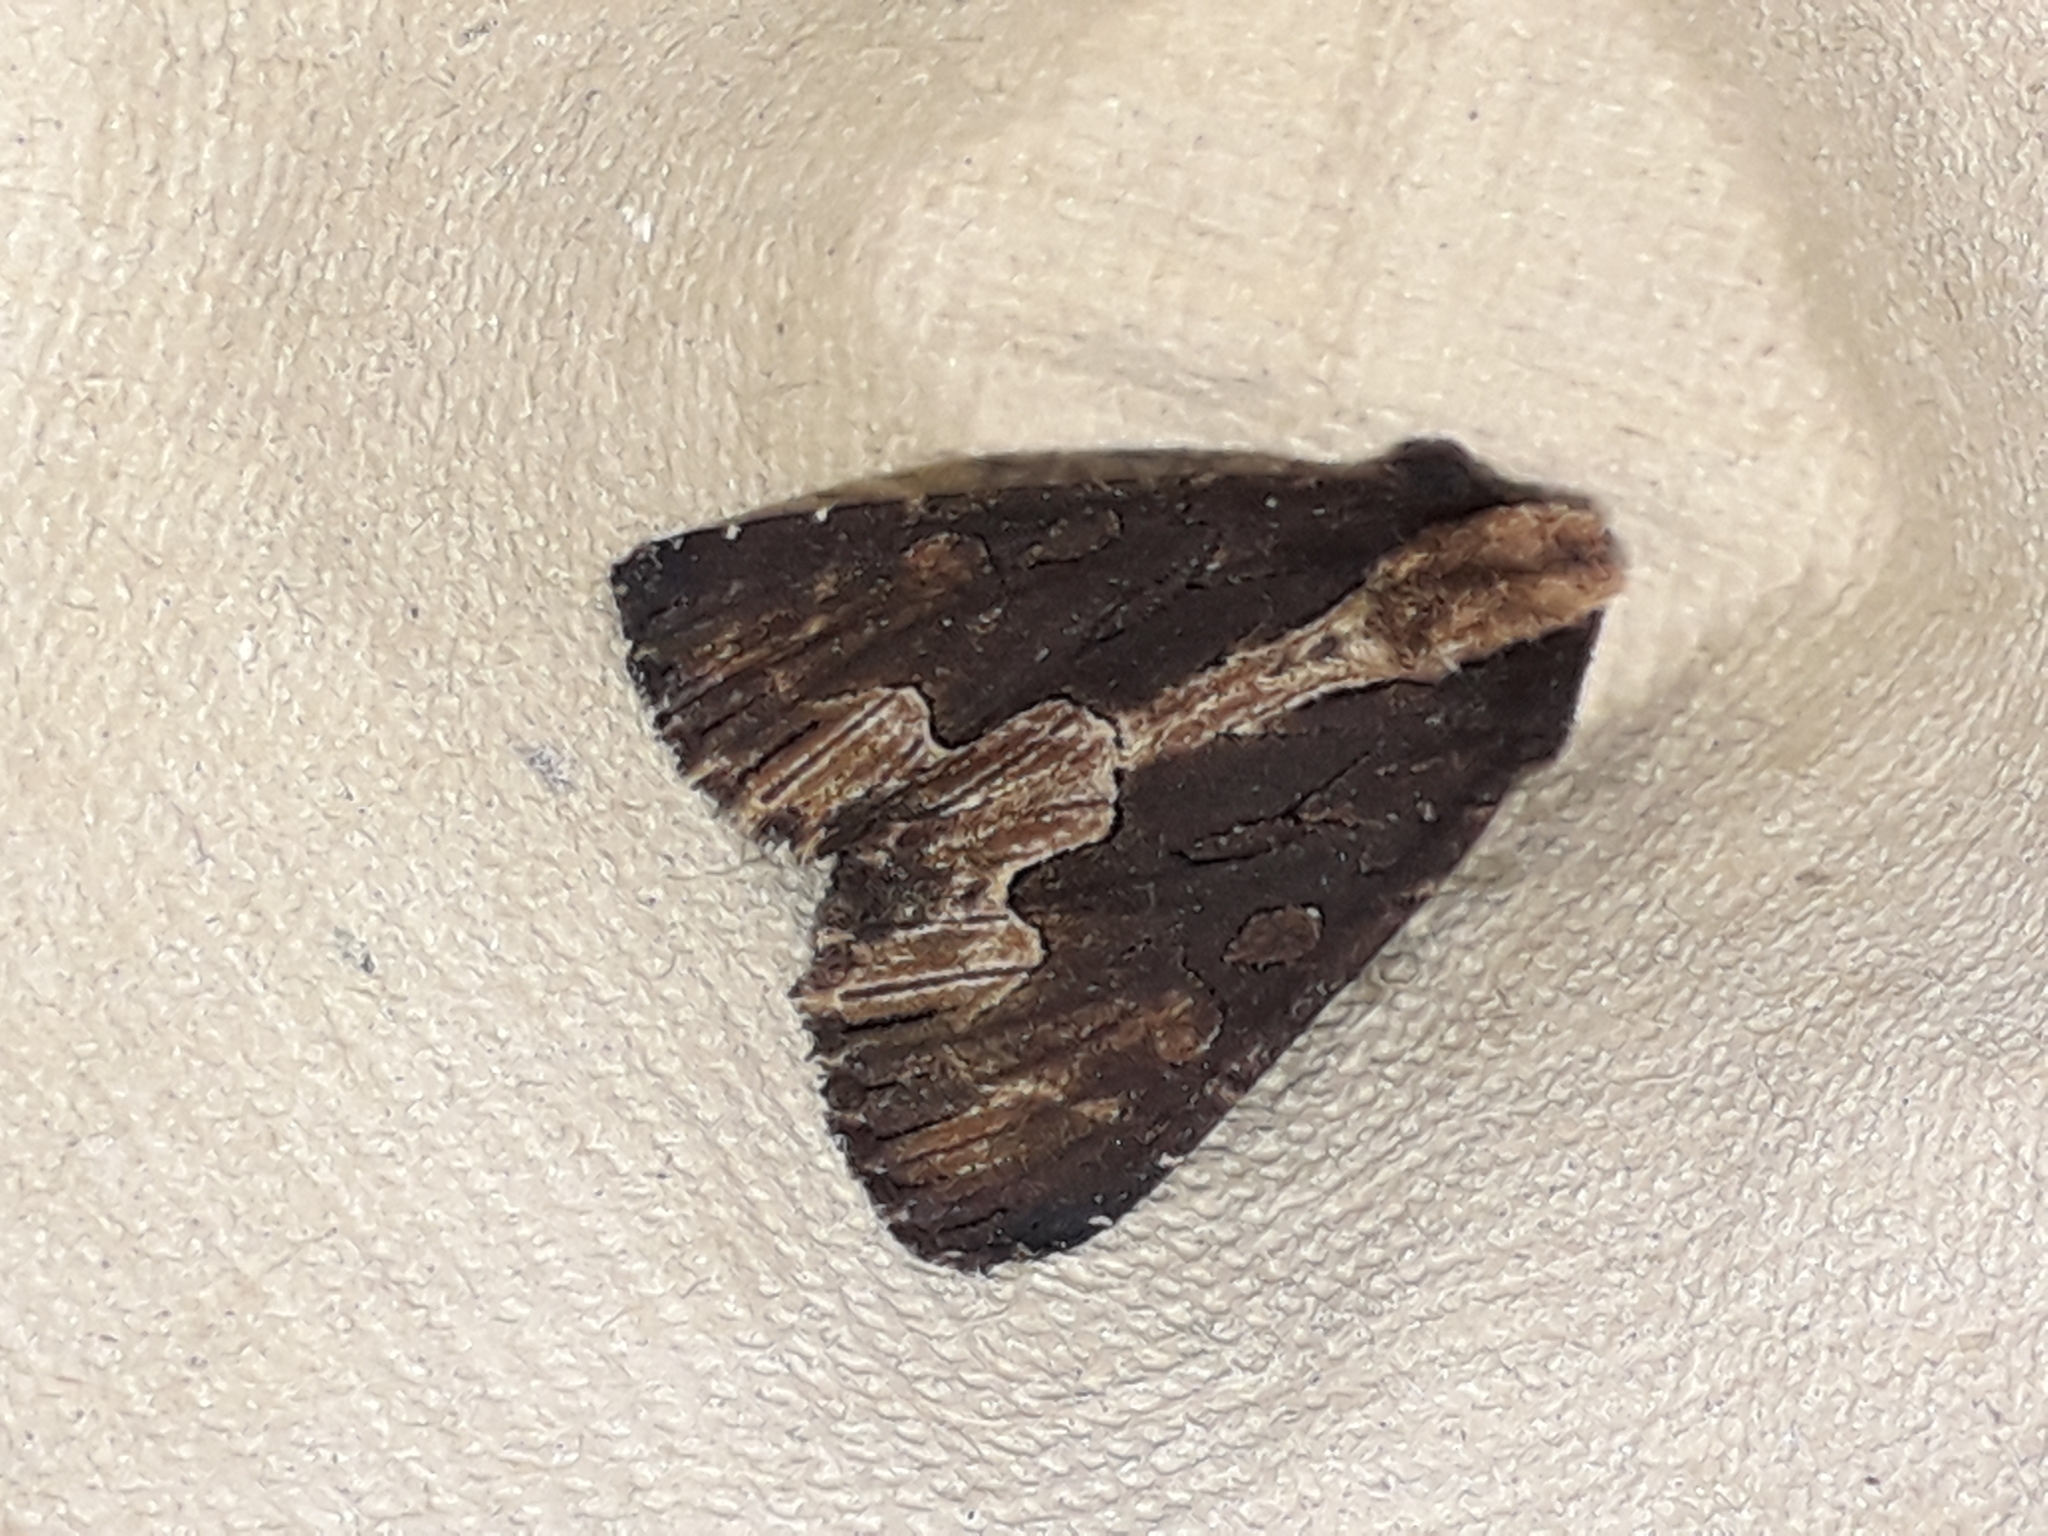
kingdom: Animalia
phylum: Arthropoda
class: Insecta
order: Lepidoptera
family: Noctuidae
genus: Dypterygia
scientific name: Dypterygia scabriuscula
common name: Bird's wing
